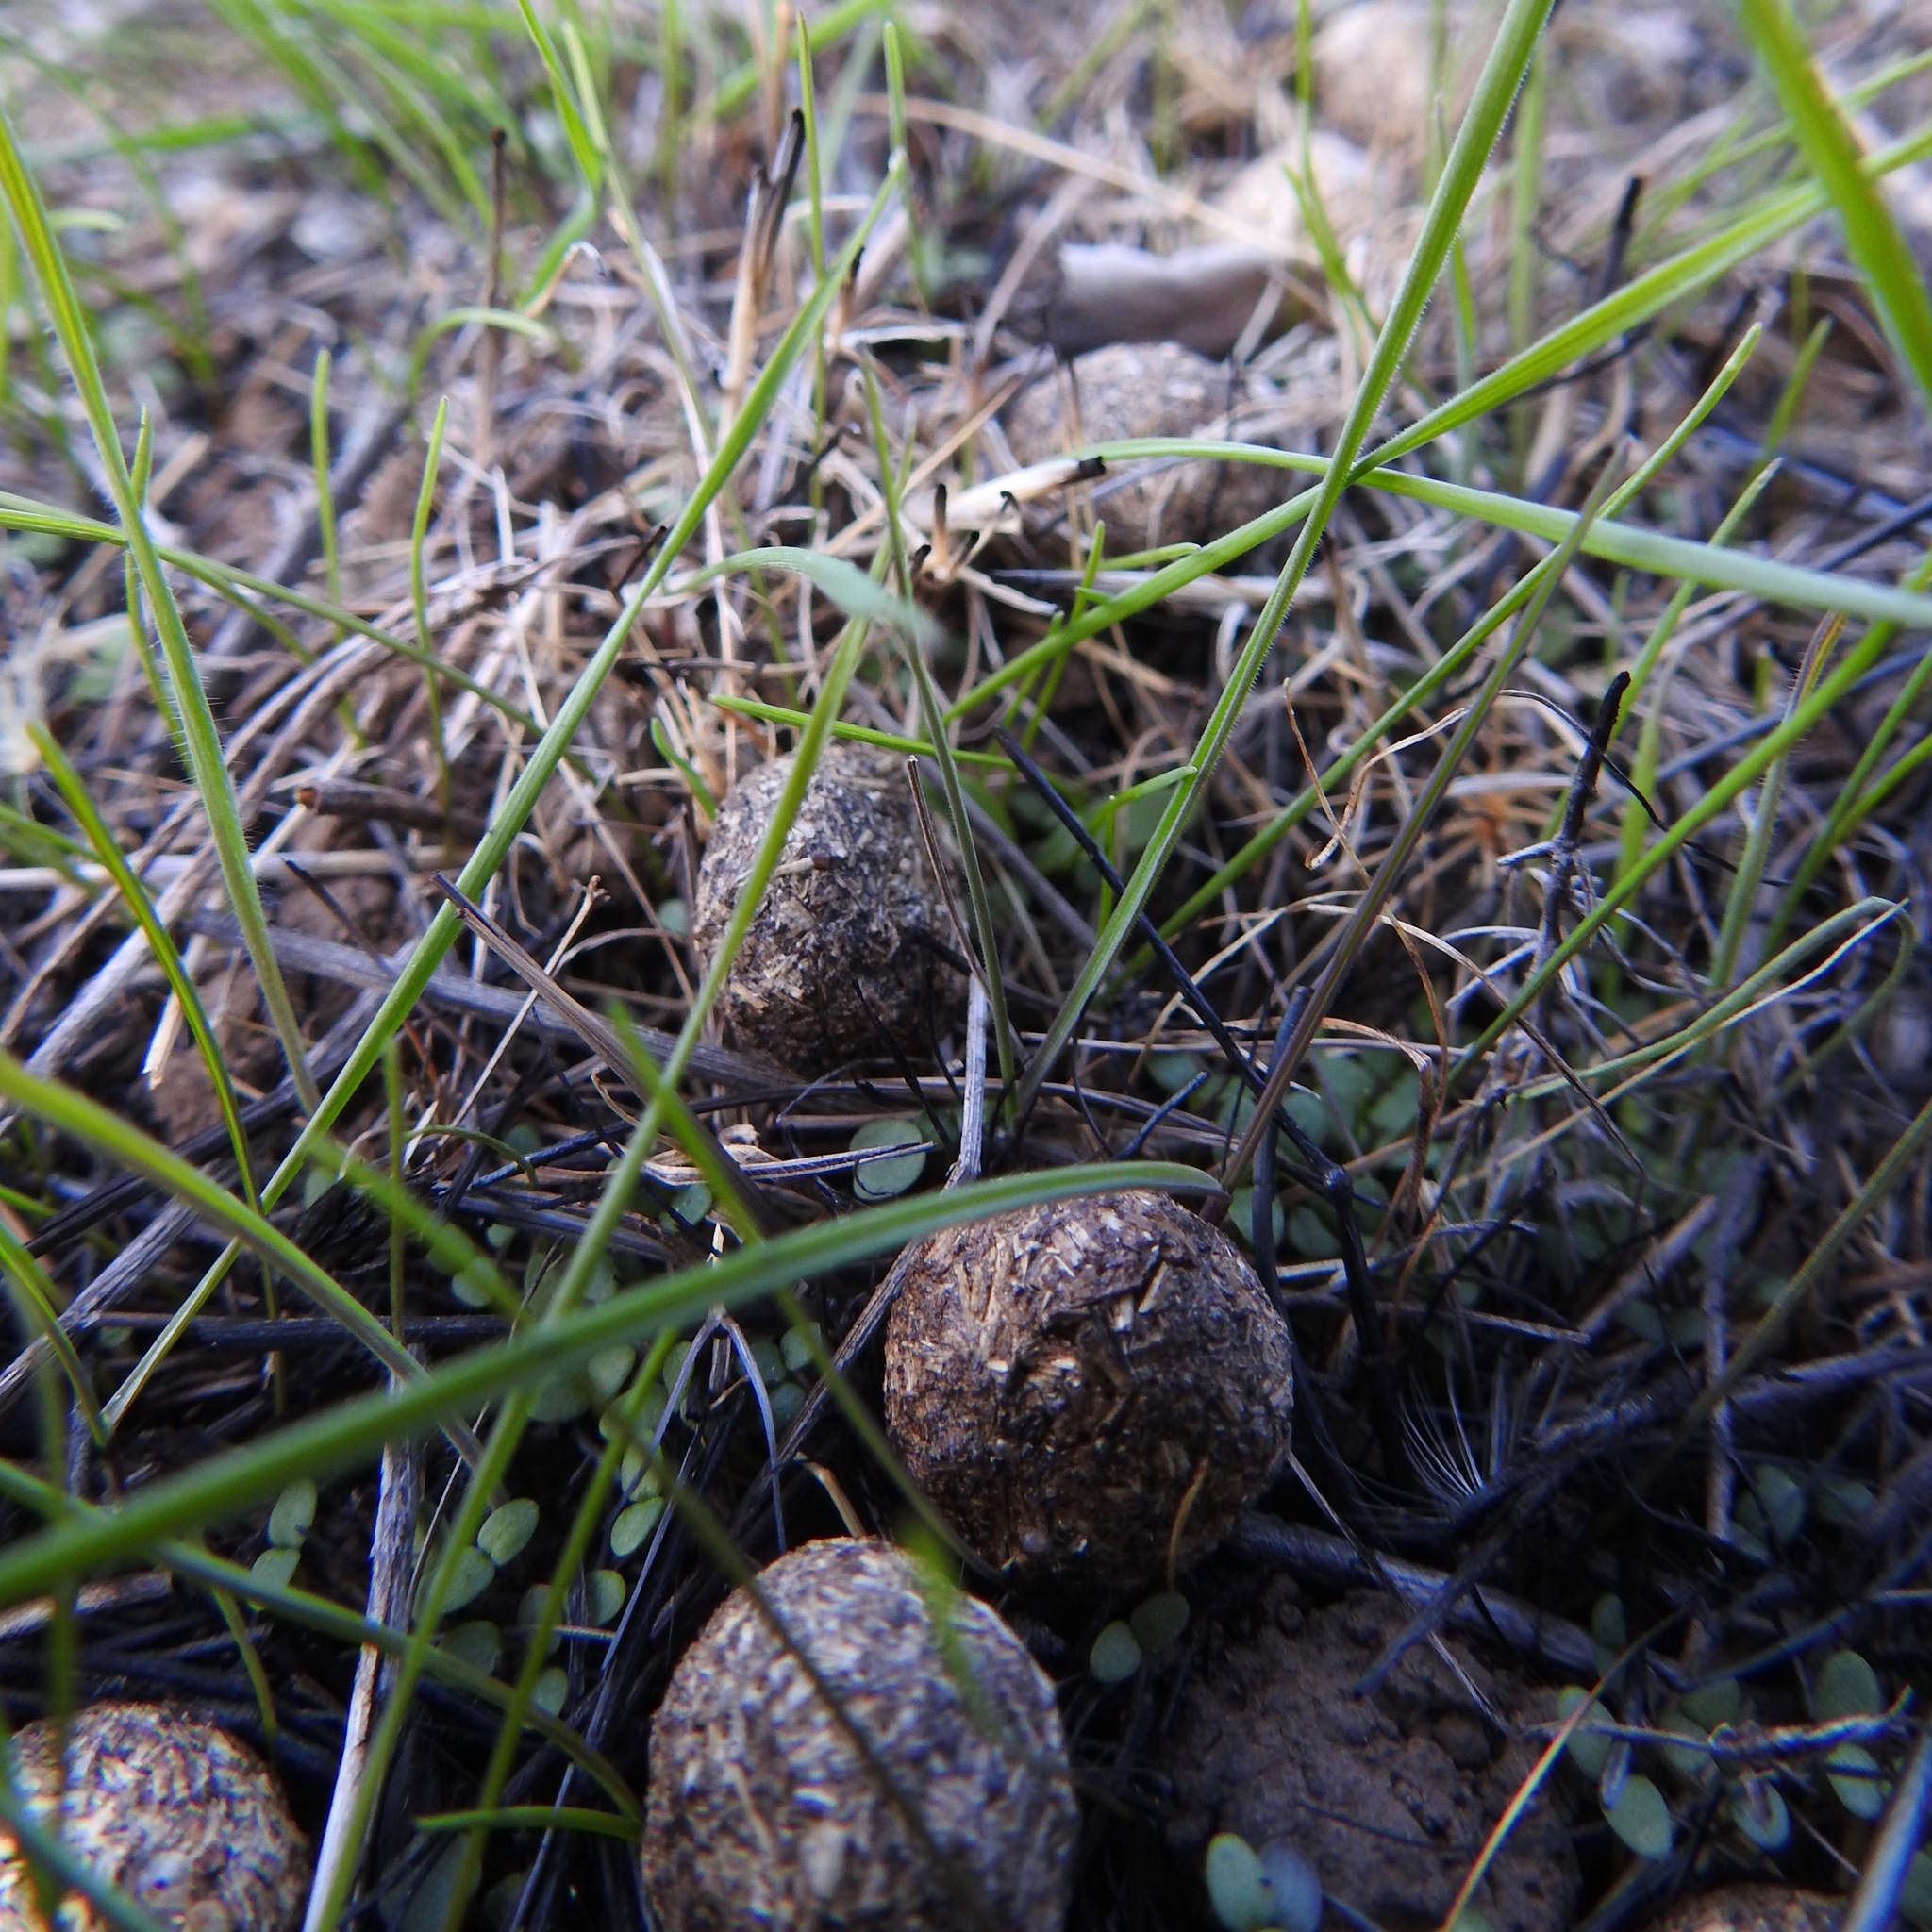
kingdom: Animalia
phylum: Chordata
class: Mammalia
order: Lagomorpha
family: Leporidae
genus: Lepus
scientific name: Lepus californicus
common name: Black-tailed jackrabbit
